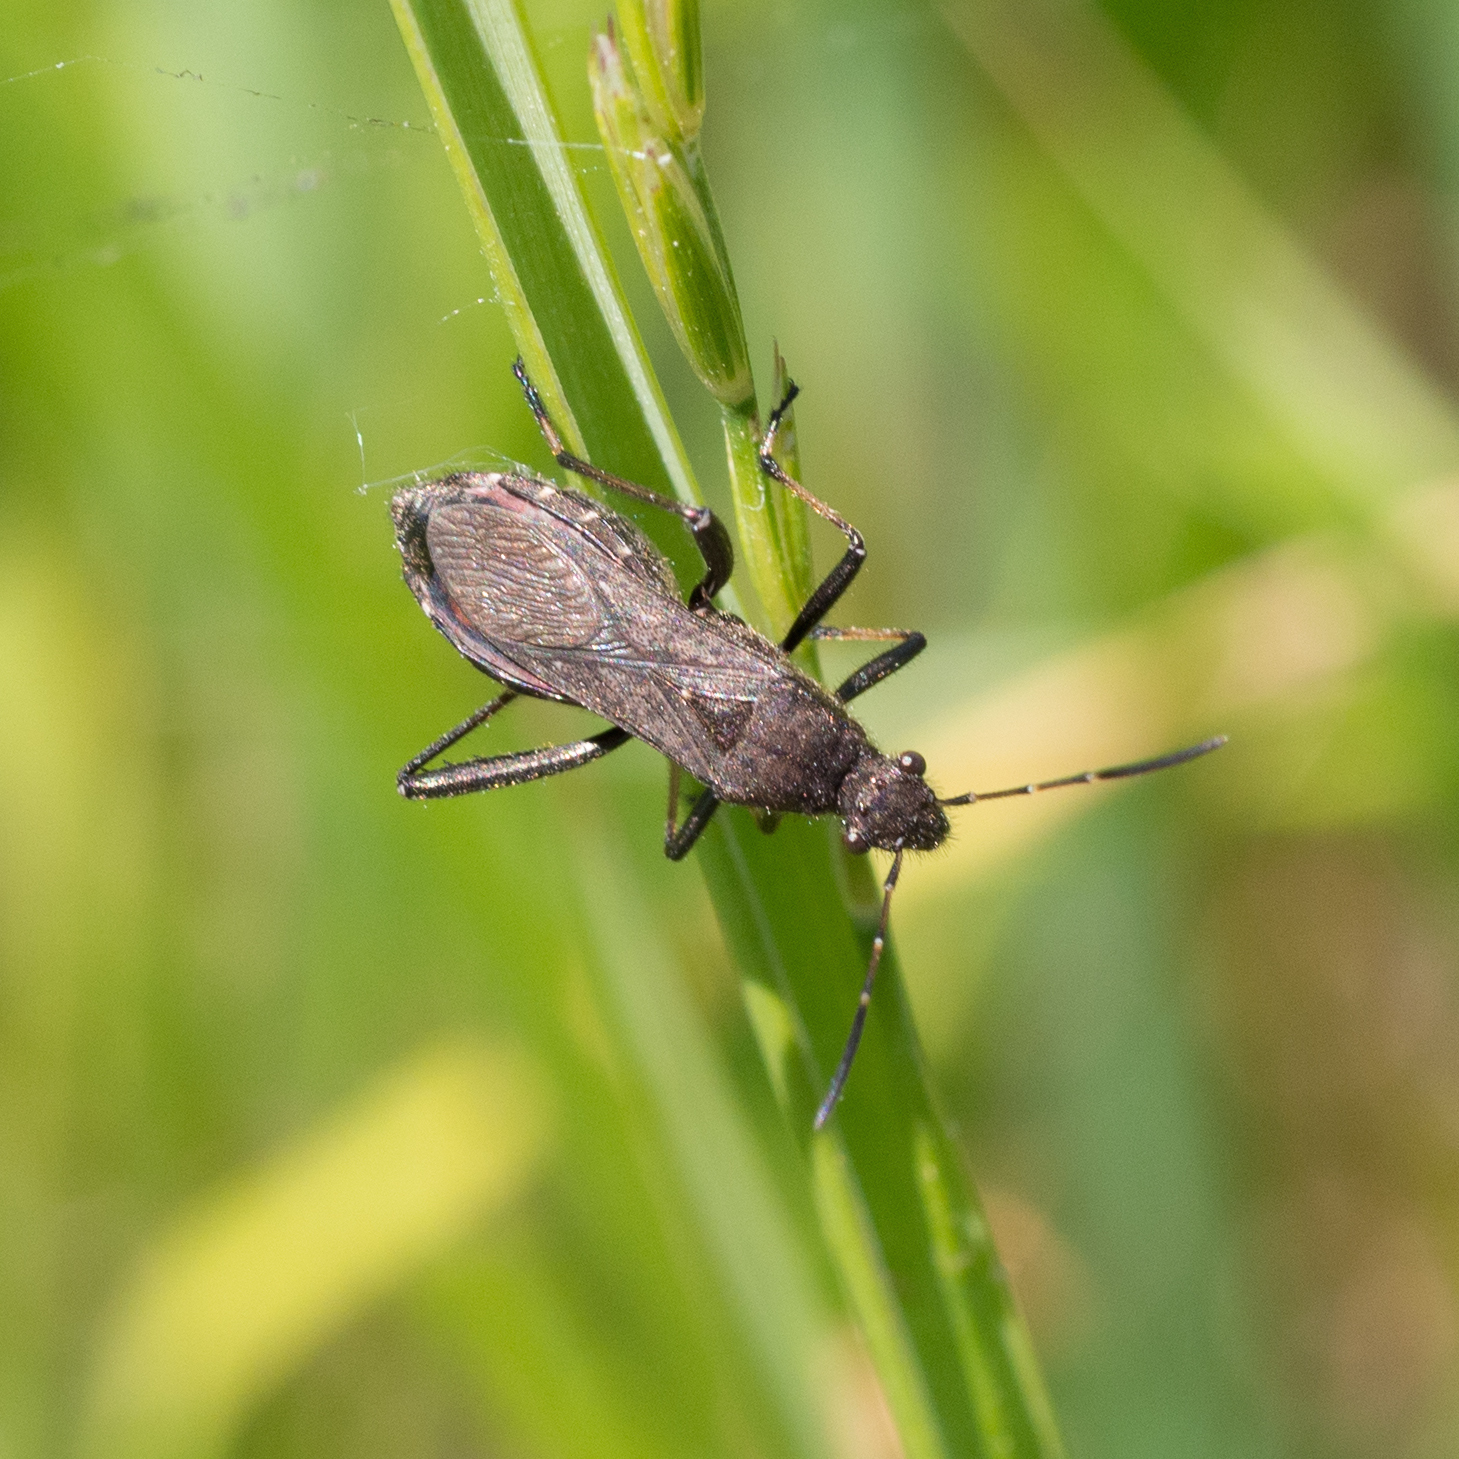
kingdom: Animalia
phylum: Arthropoda
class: Insecta
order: Hemiptera
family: Alydidae
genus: Alydus
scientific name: Alydus calcaratus
